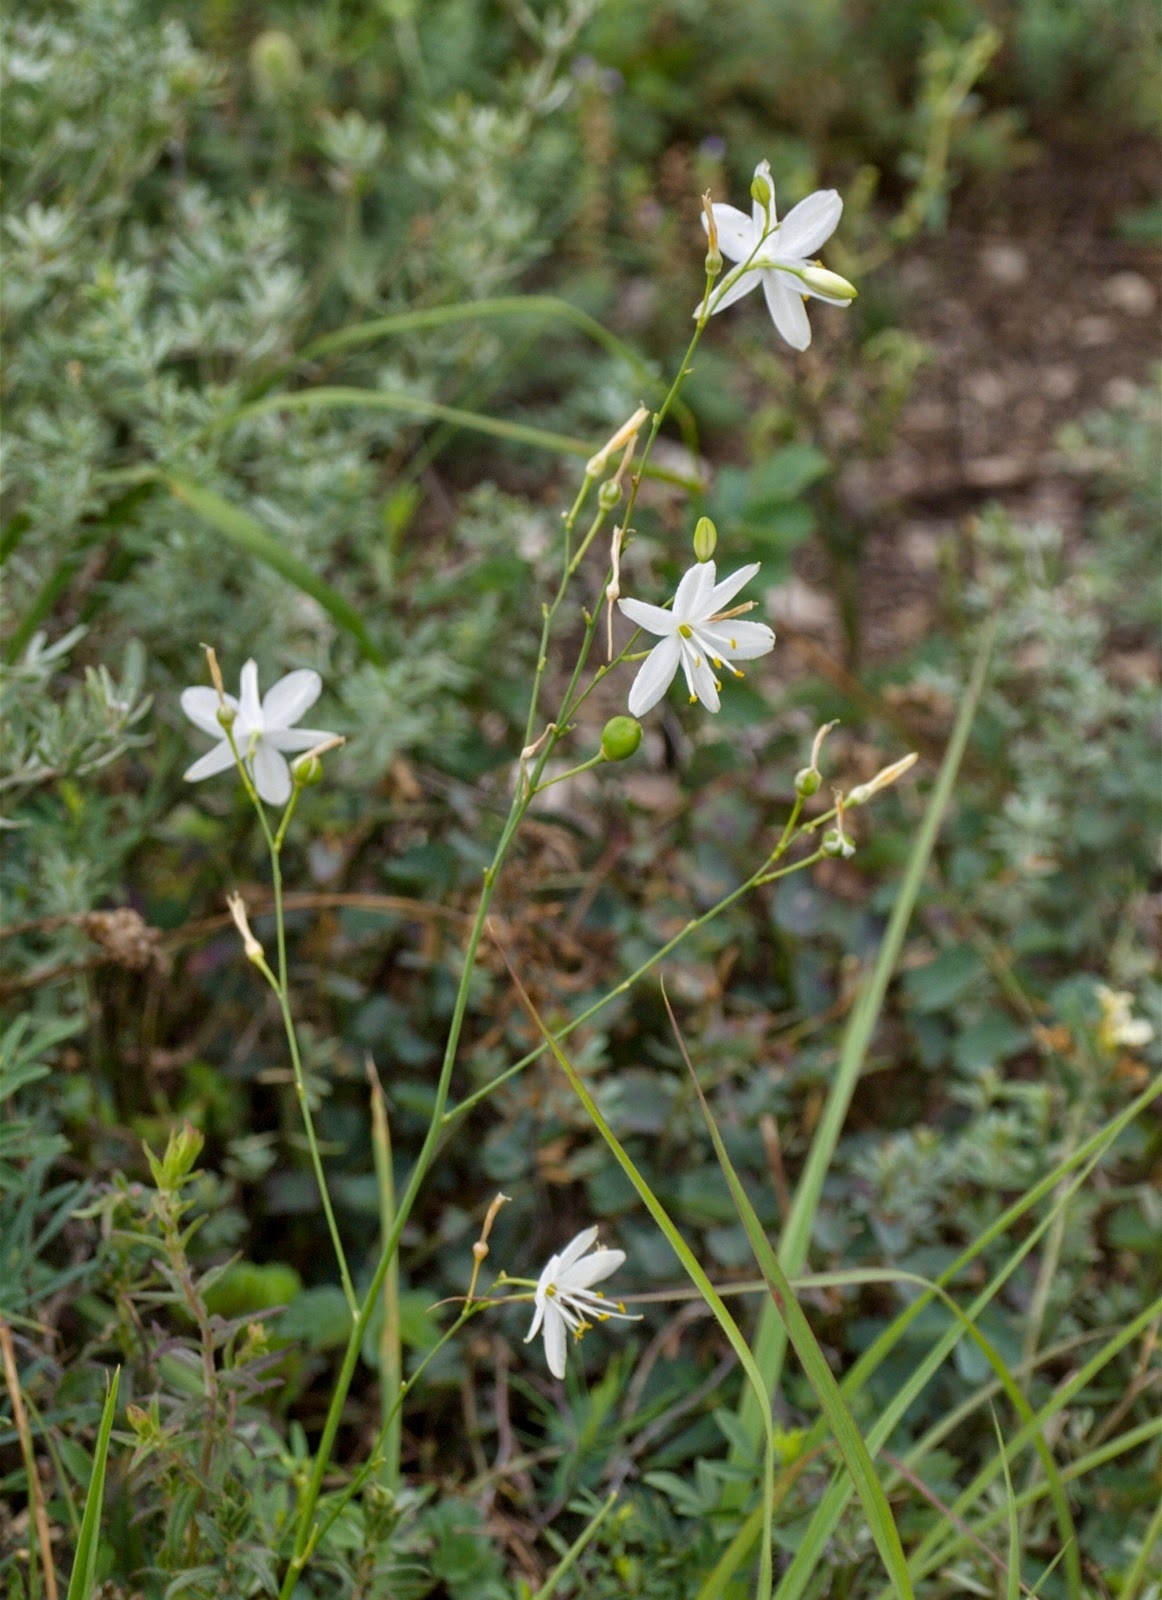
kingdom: Plantae
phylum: Tracheophyta
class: Liliopsida
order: Asparagales
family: Asparagaceae
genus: Anthericum
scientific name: Anthericum ramosum
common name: Branched st. bernard's-lily
